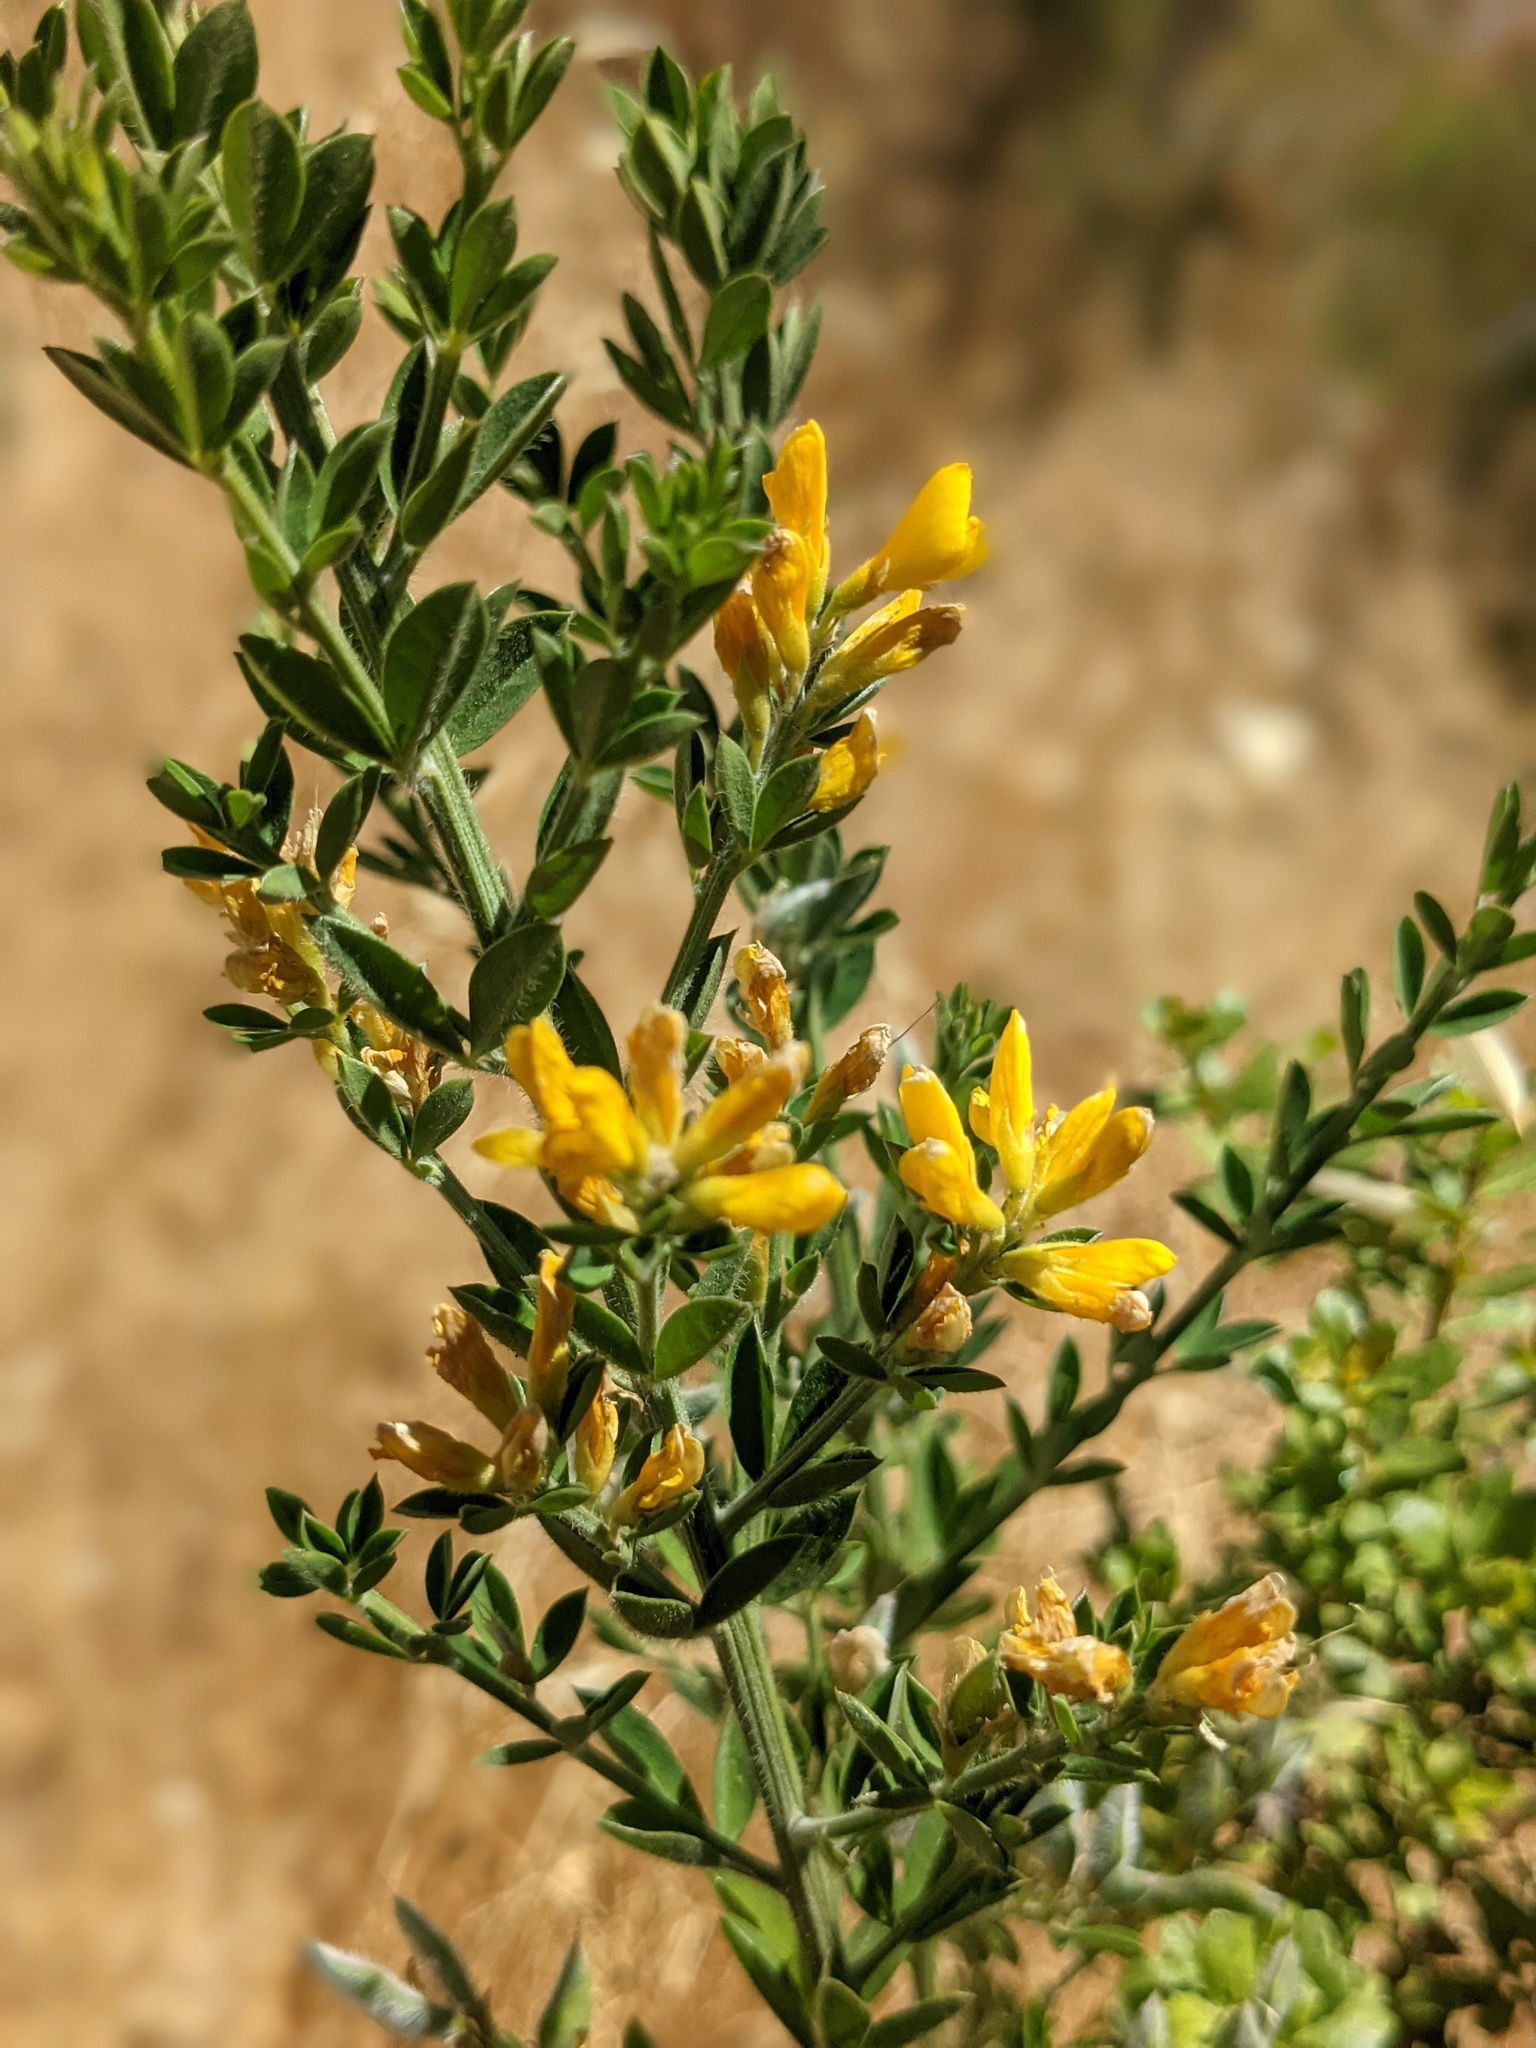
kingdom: Plantae
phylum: Tracheophyta
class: Magnoliopsida
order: Fabales
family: Fabaceae
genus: Genista
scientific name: Genista monspessulana
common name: Montpellier broom
